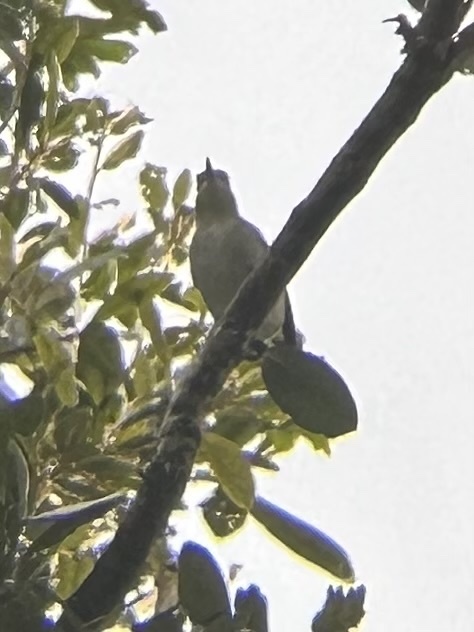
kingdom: Animalia
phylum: Chordata
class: Aves
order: Passeriformes
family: Mimidae
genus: Dumetella
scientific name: Dumetella carolinensis
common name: Gray catbird
